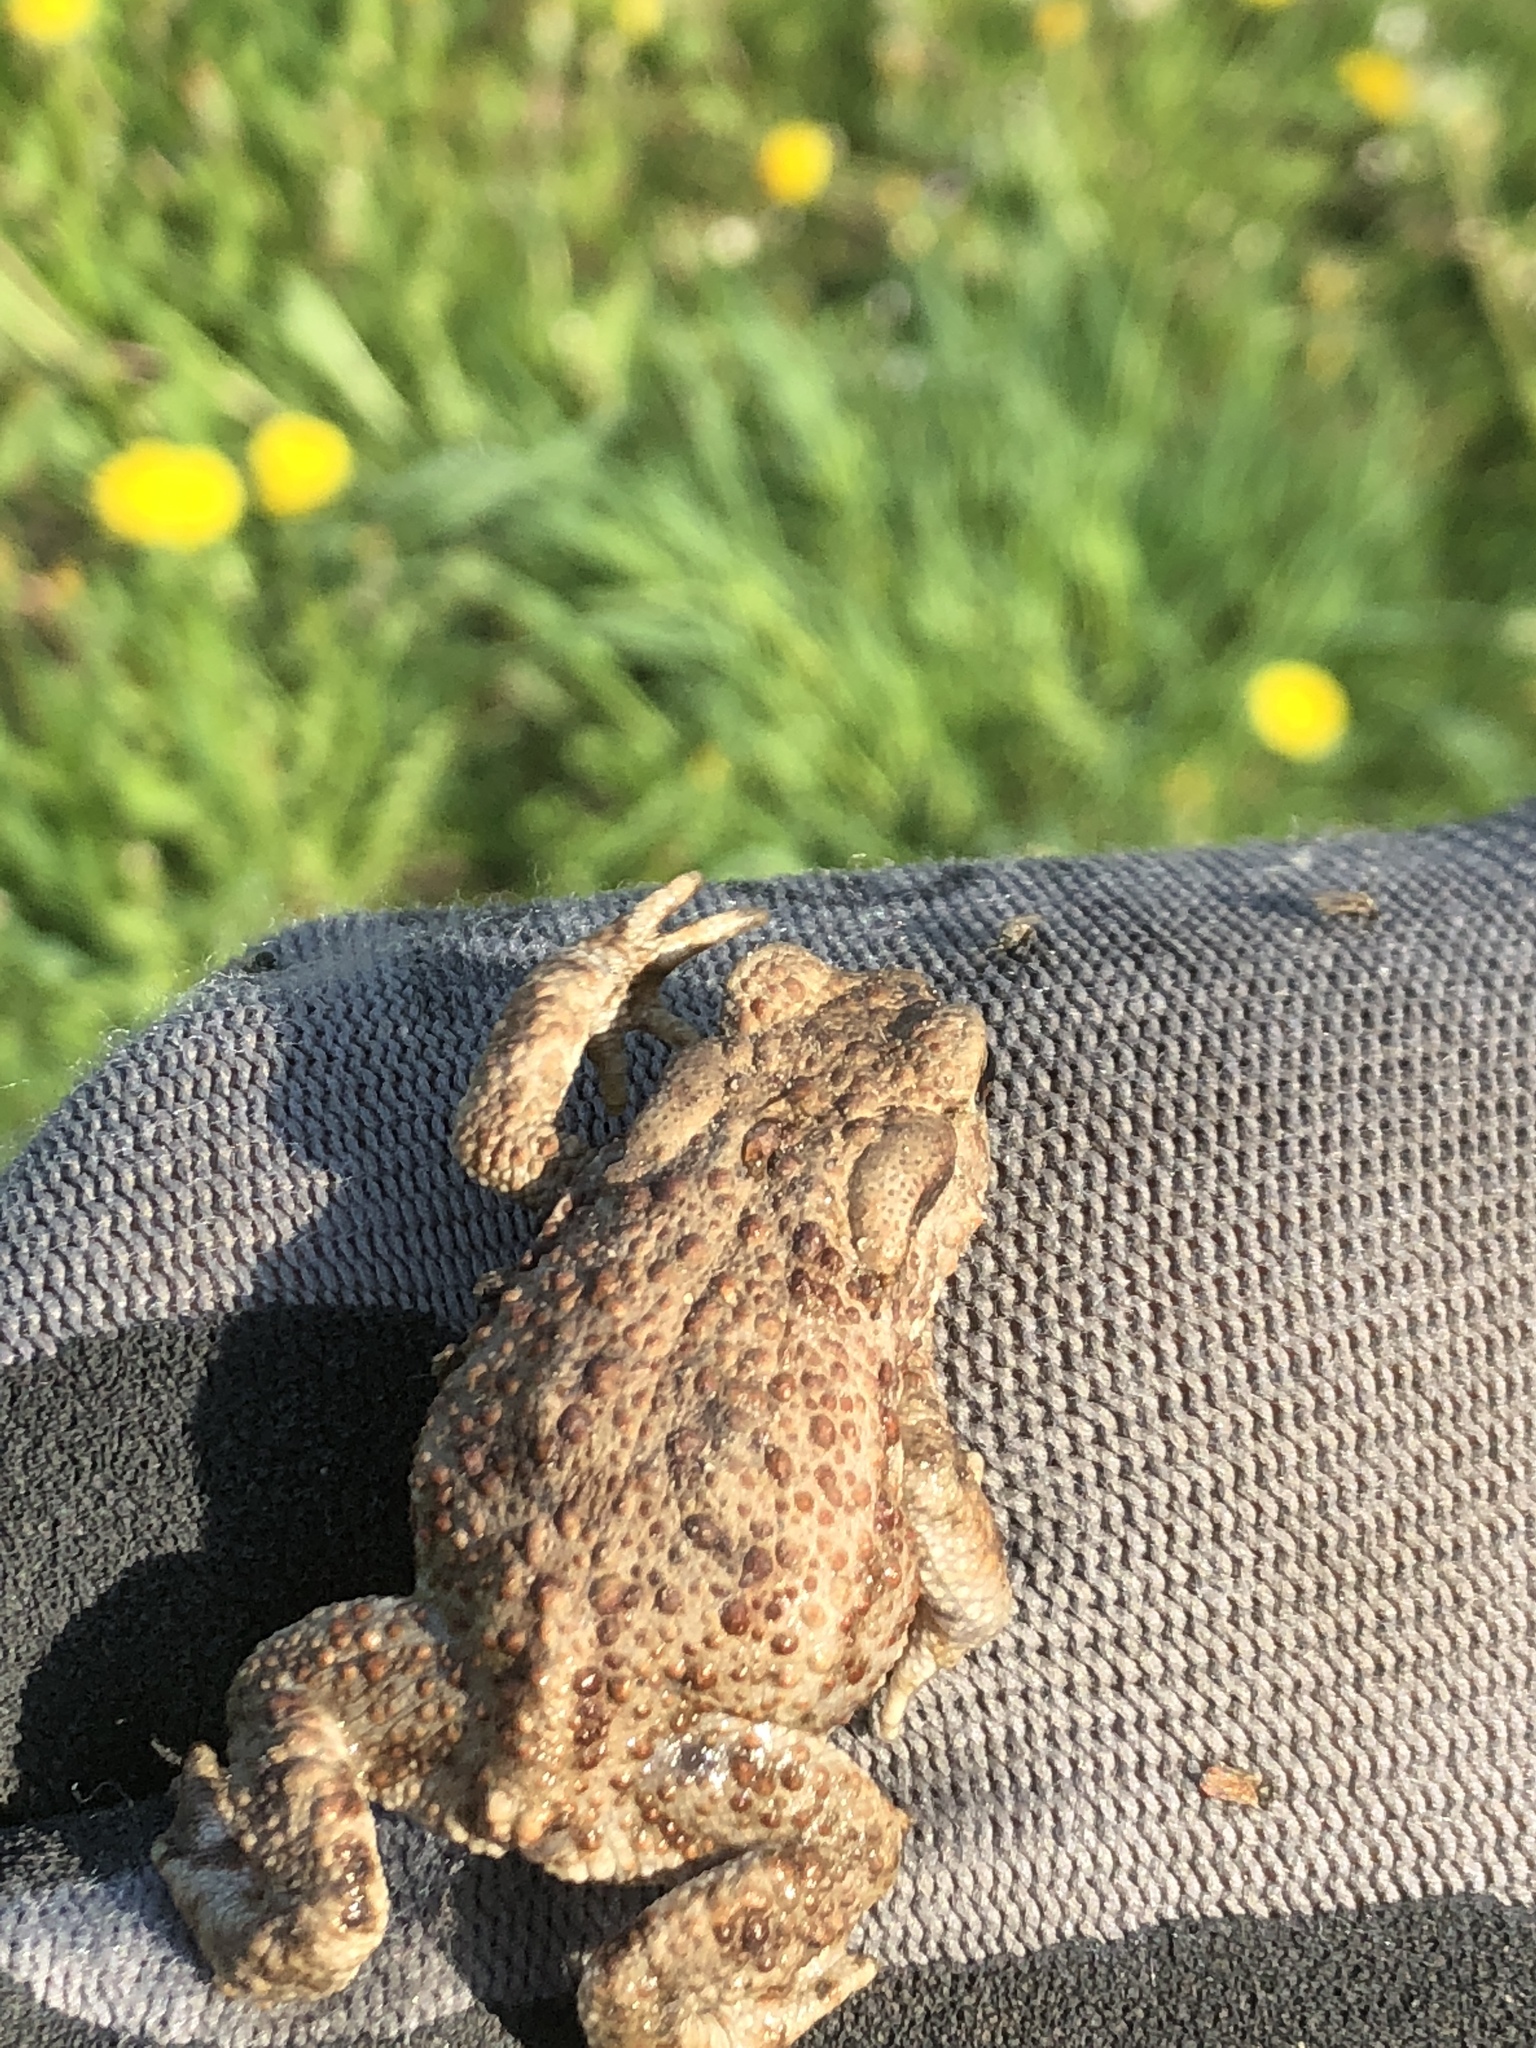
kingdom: Animalia
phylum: Chordata
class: Amphibia
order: Anura
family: Bufonidae
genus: Bufo
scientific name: Bufo bufo
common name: Common toad
